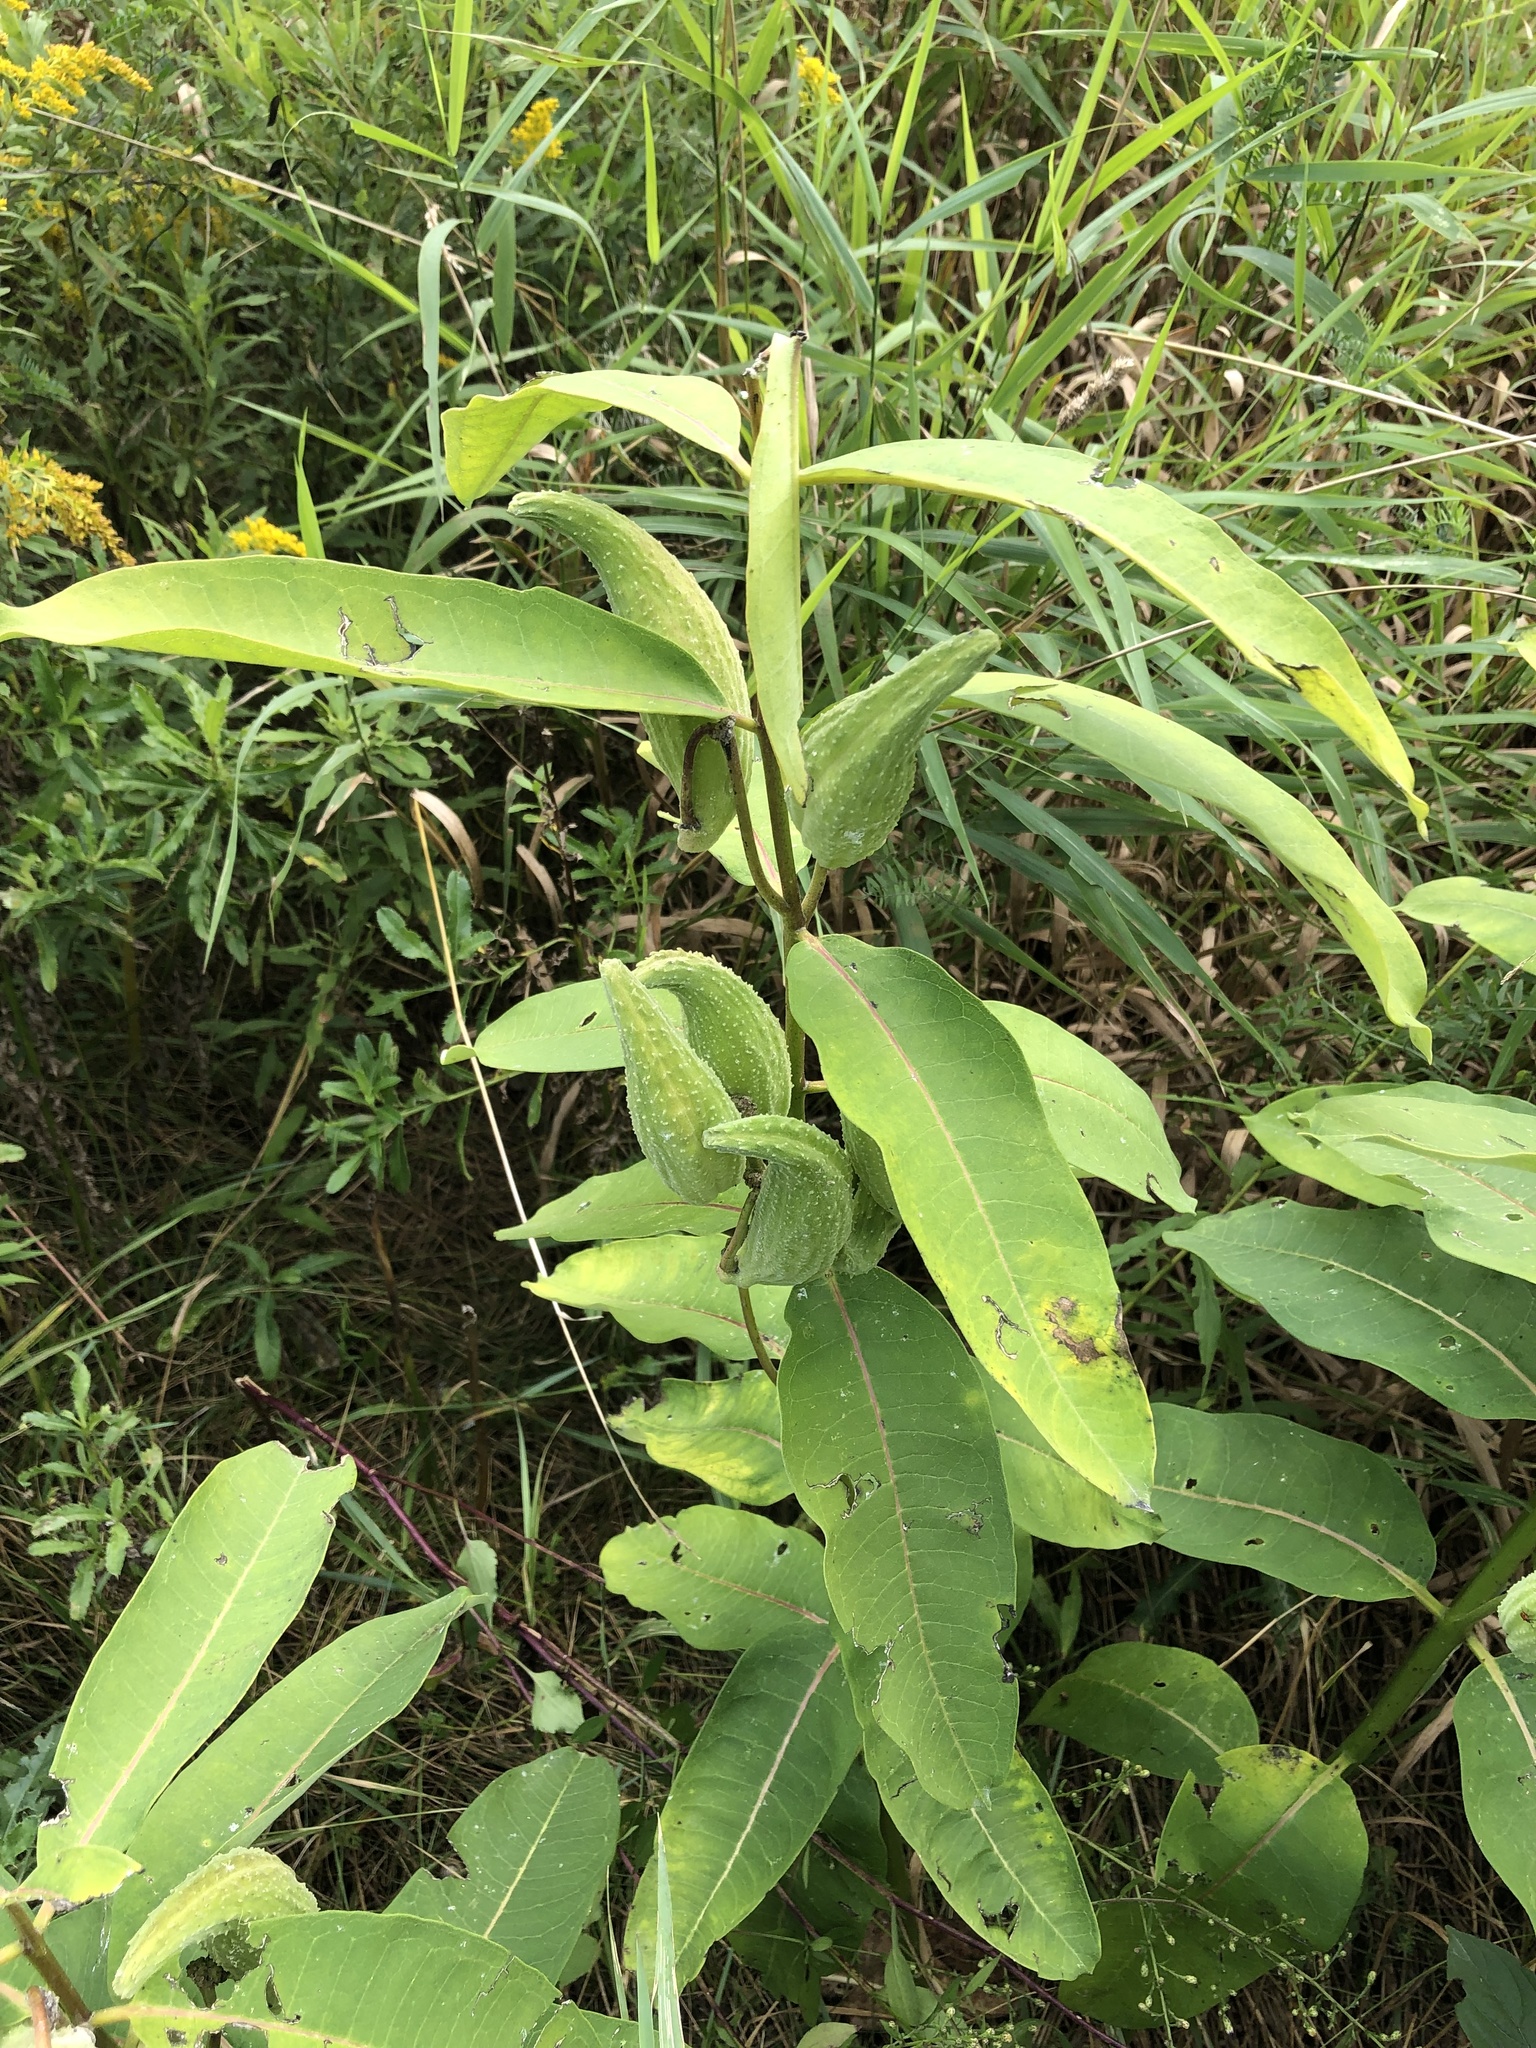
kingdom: Plantae
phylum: Tracheophyta
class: Magnoliopsida
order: Gentianales
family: Apocynaceae
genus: Asclepias
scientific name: Asclepias syriaca
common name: Common milkweed
